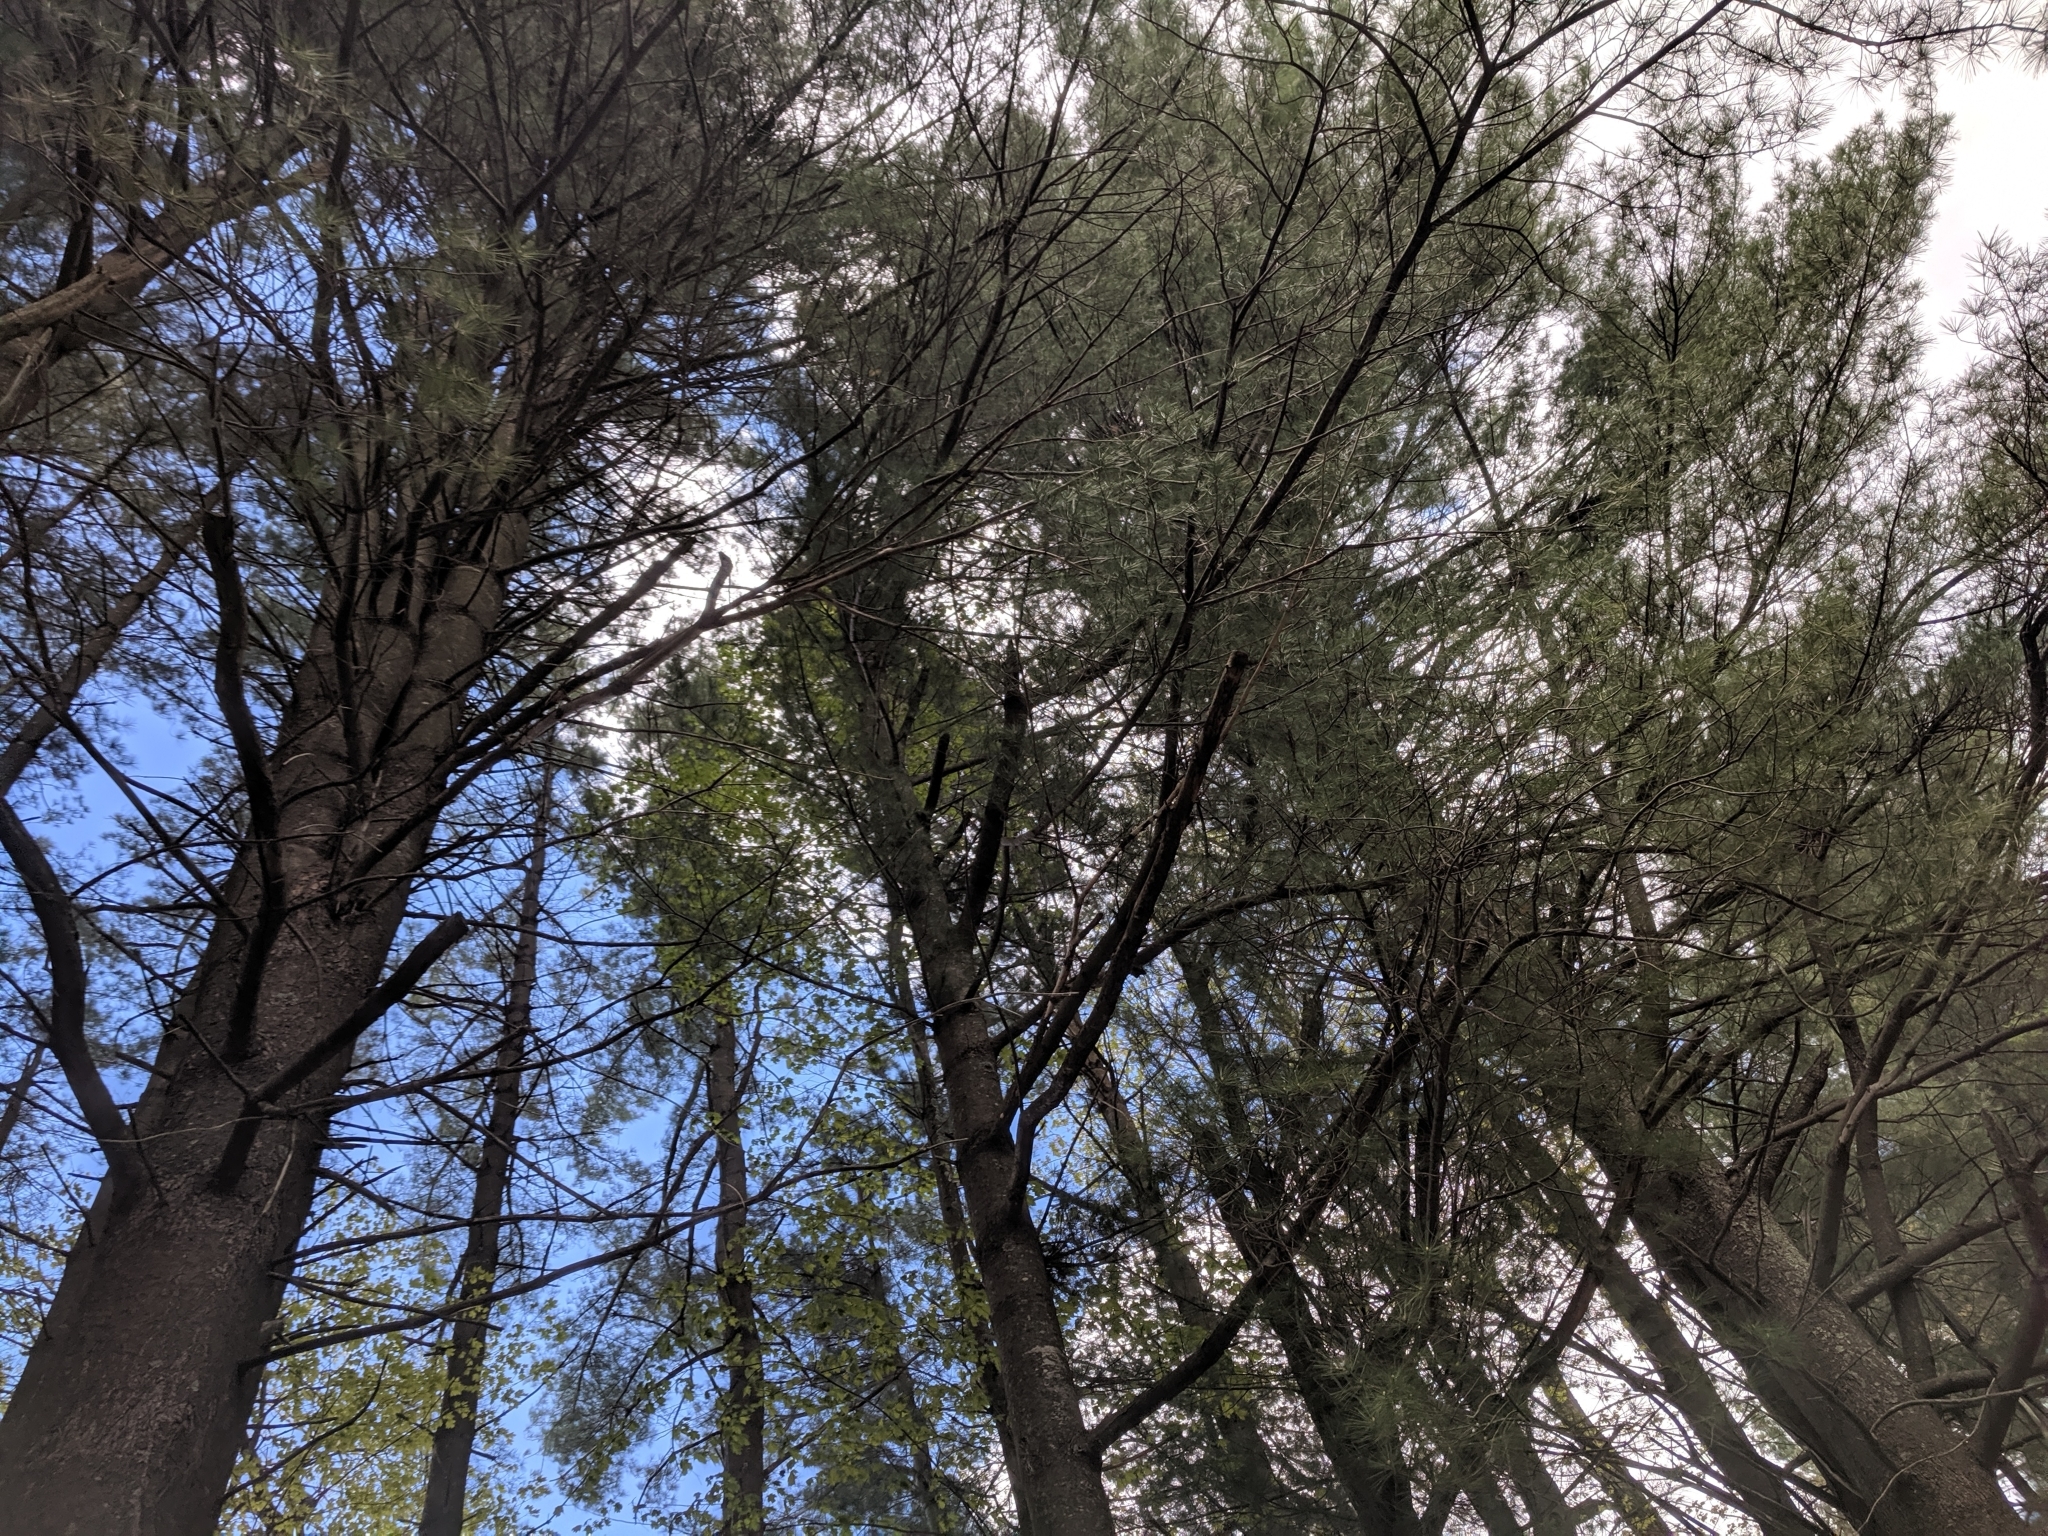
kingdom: Plantae
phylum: Tracheophyta
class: Pinopsida
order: Pinales
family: Pinaceae
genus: Pinus
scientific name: Pinus strobus
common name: Weymouth pine
